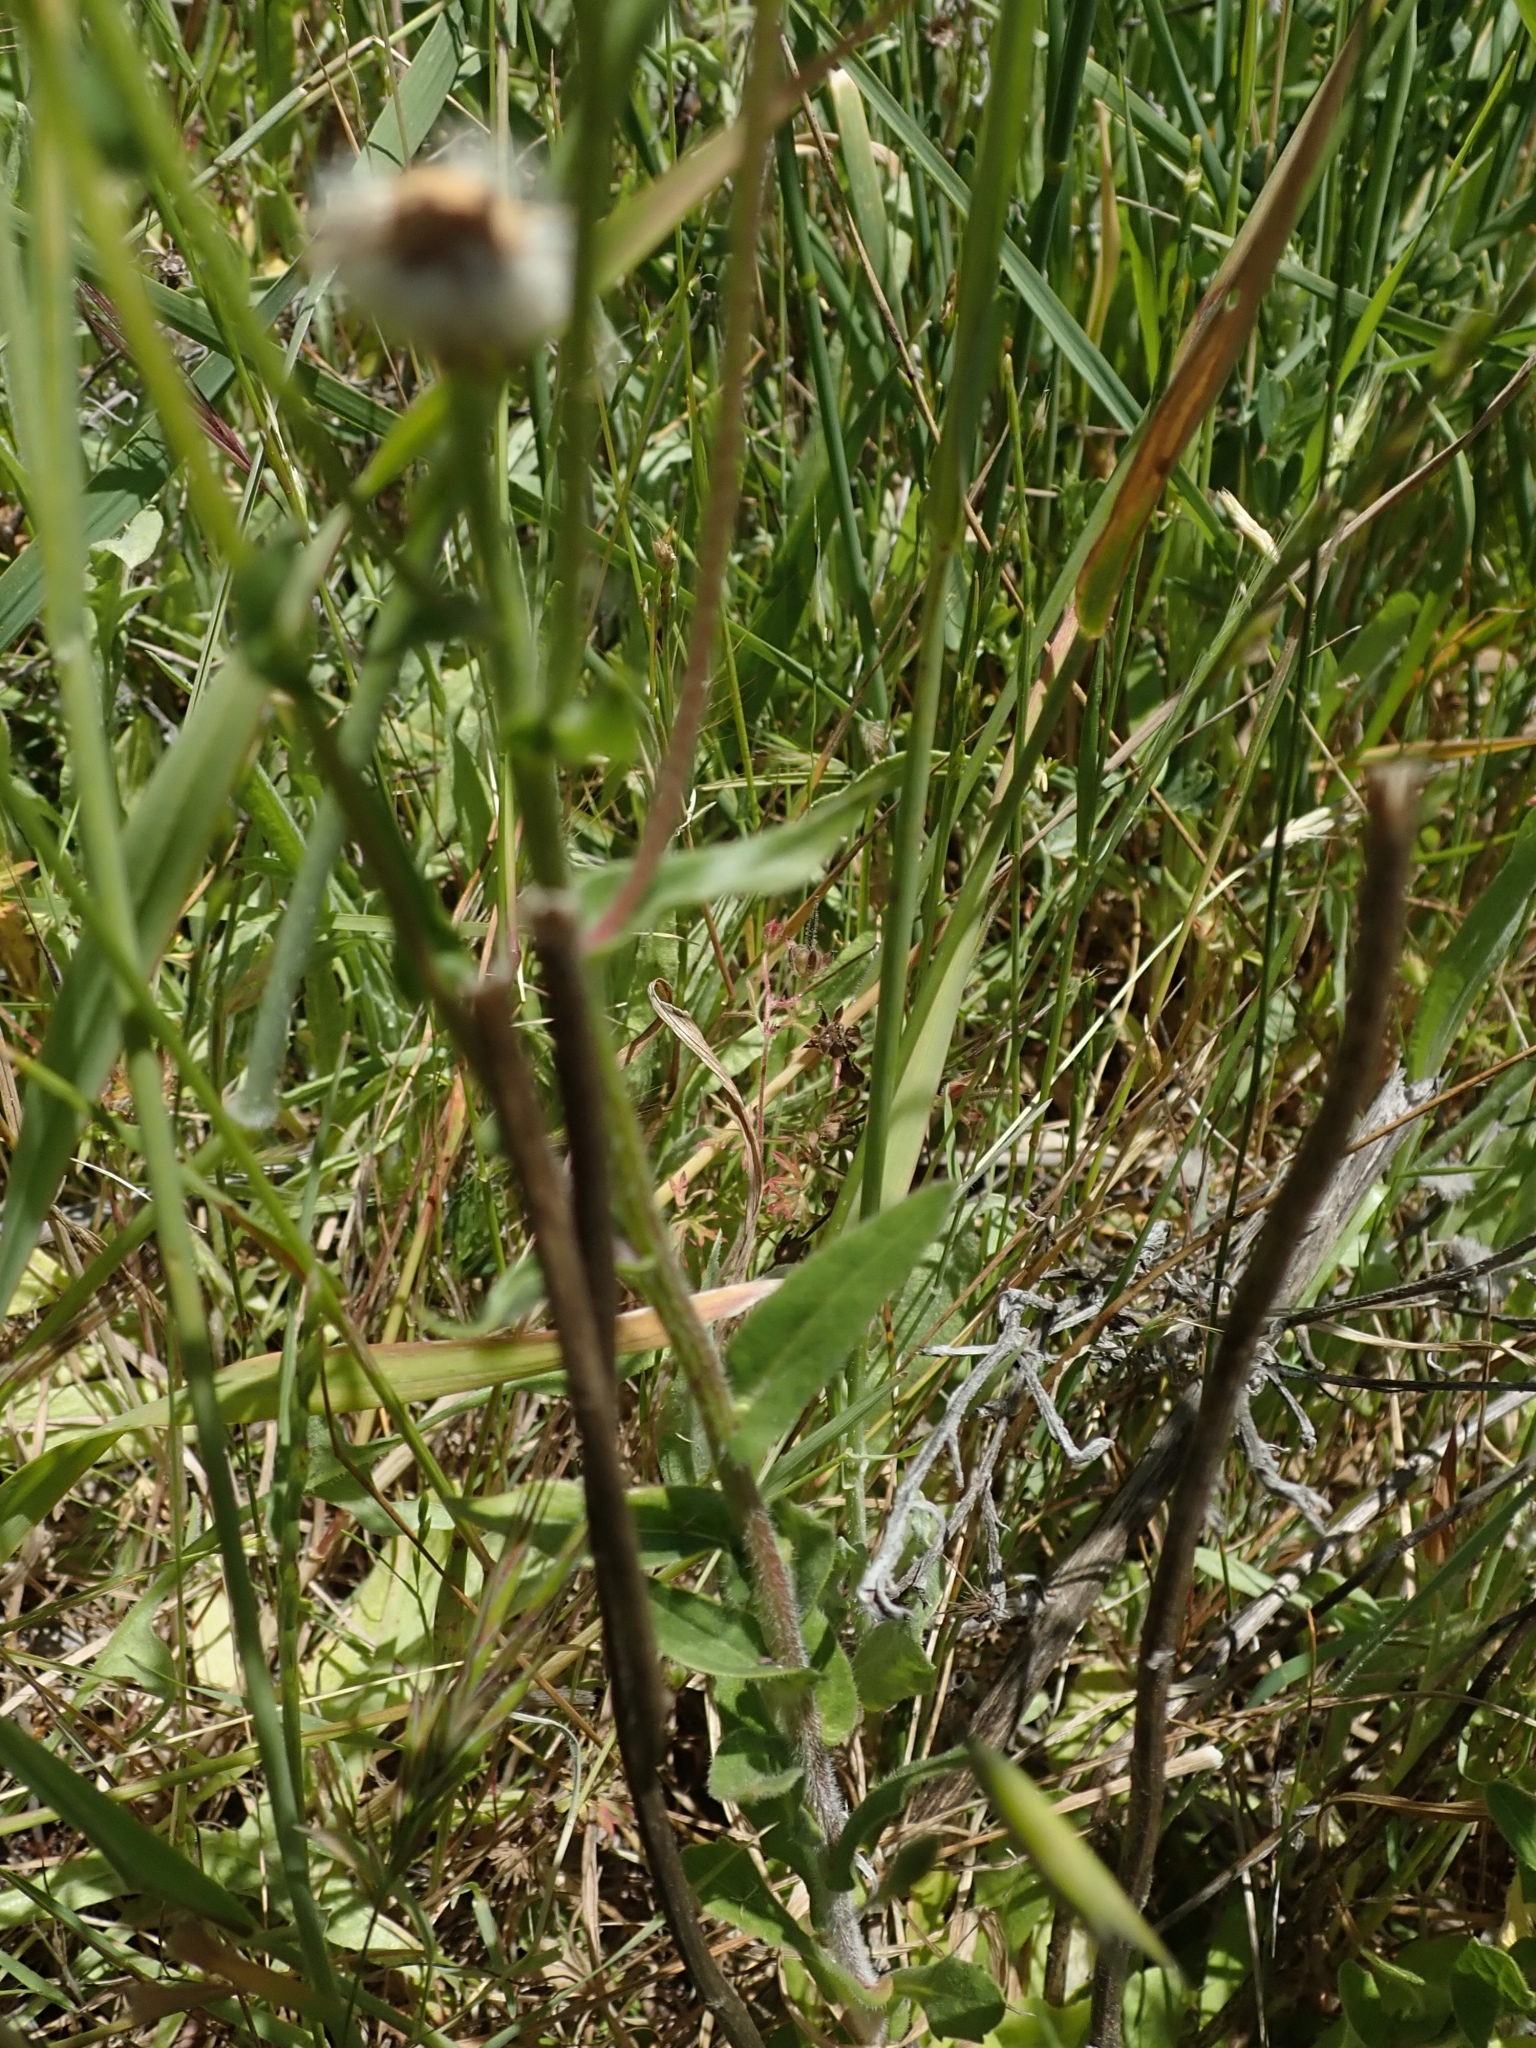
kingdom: Plantae
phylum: Tracheophyta
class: Magnoliopsida
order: Asterales
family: Asteraceae
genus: Erigeron
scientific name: Erigeron philadelphicus
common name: Robin's-plantain
